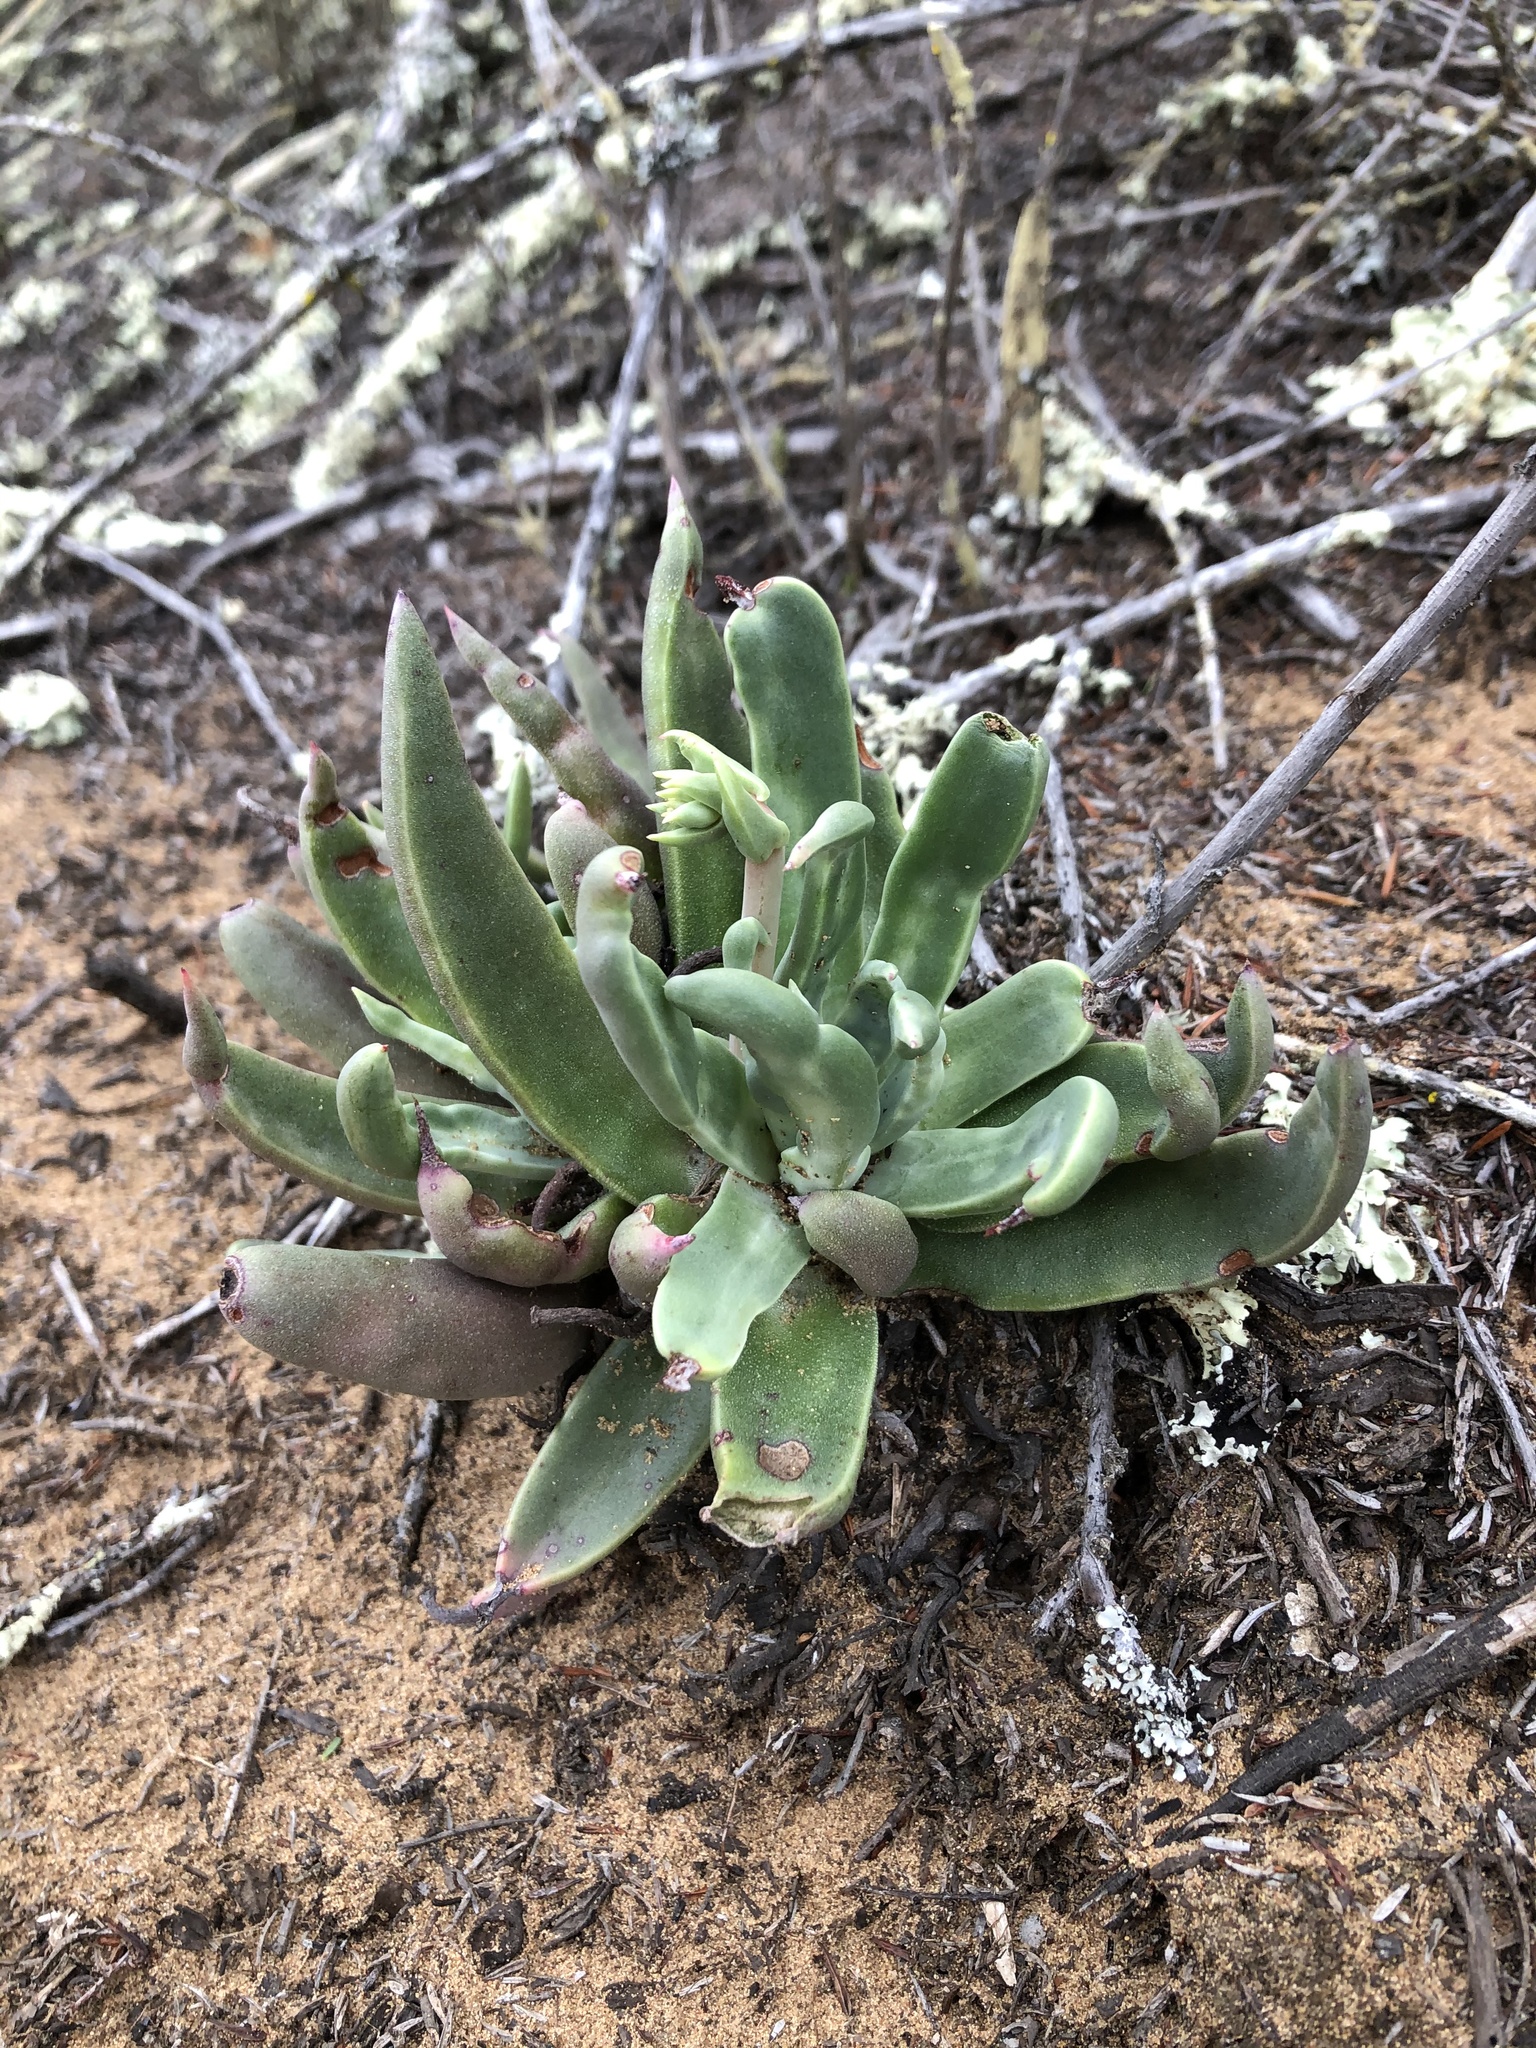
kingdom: Plantae
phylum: Tracheophyta
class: Magnoliopsida
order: Saxifragales
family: Crassulaceae
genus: Dudleya
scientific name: Dudleya caespitosa
